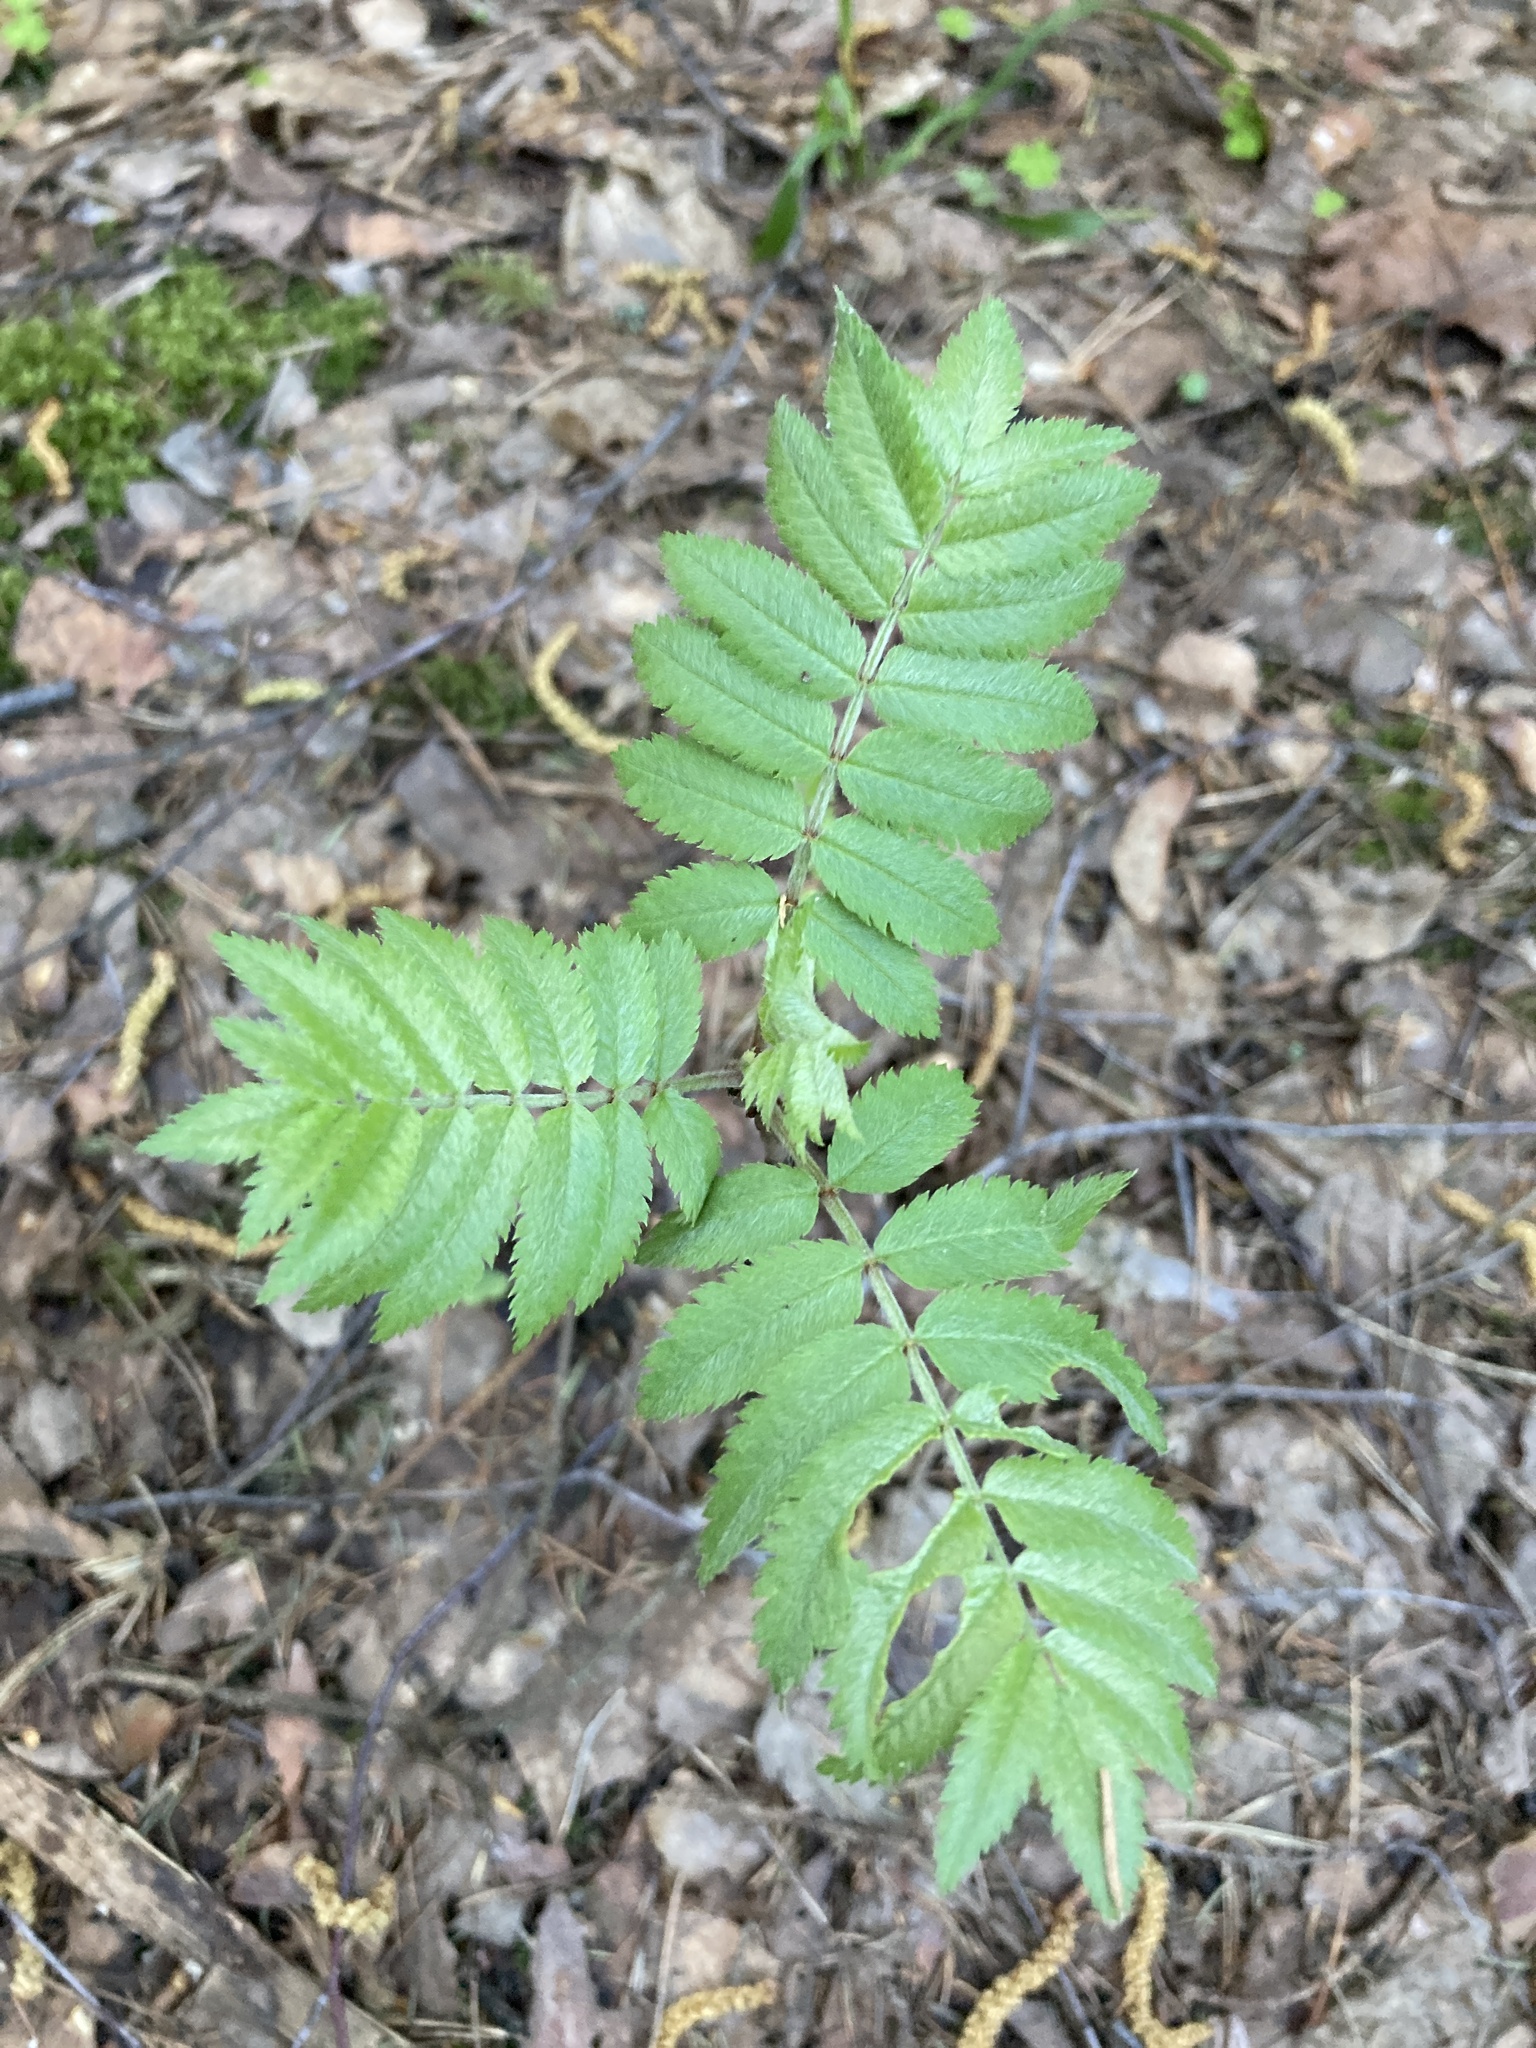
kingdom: Plantae
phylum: Tracheophyta
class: Magnoliopsida
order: Rosales
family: Rosaceae
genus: Sorbus
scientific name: Sorbus aucuparia
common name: Rowan
